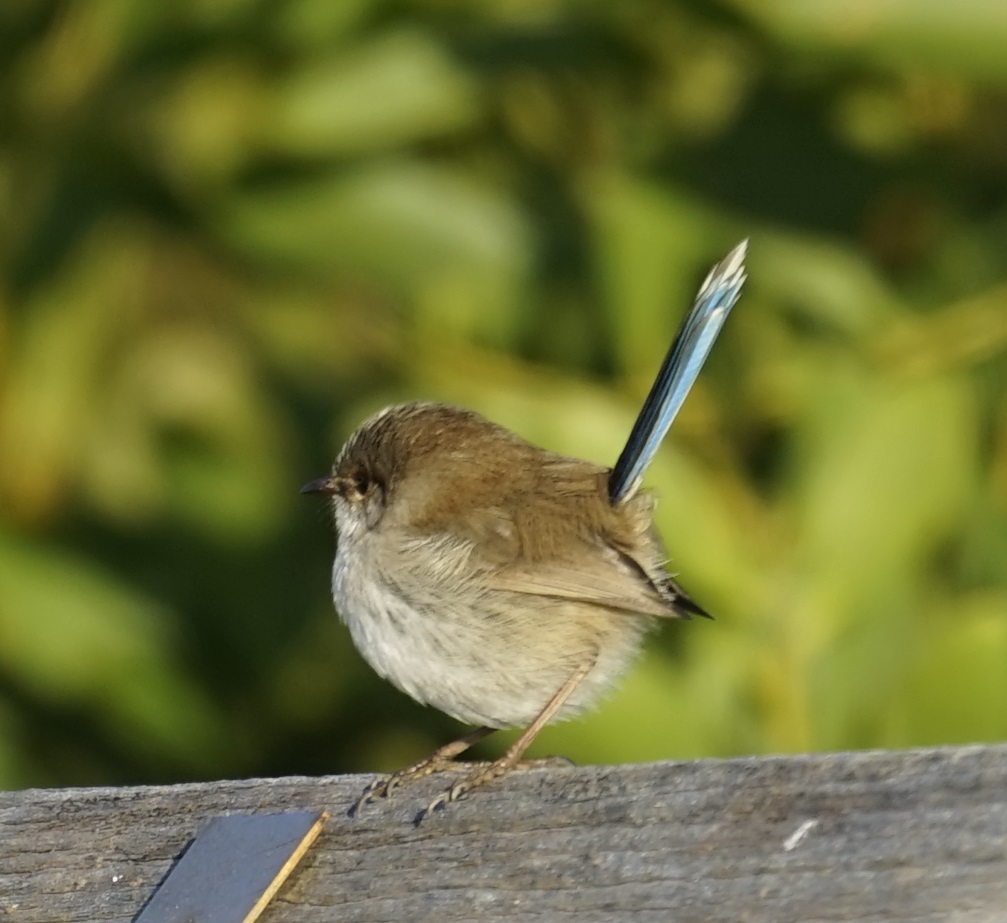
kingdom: Animalia
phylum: Chordata
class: Aves
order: Passeriformes
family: Maluridae
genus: Malurus
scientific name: Malurus cyaneus
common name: Superb fairywren
